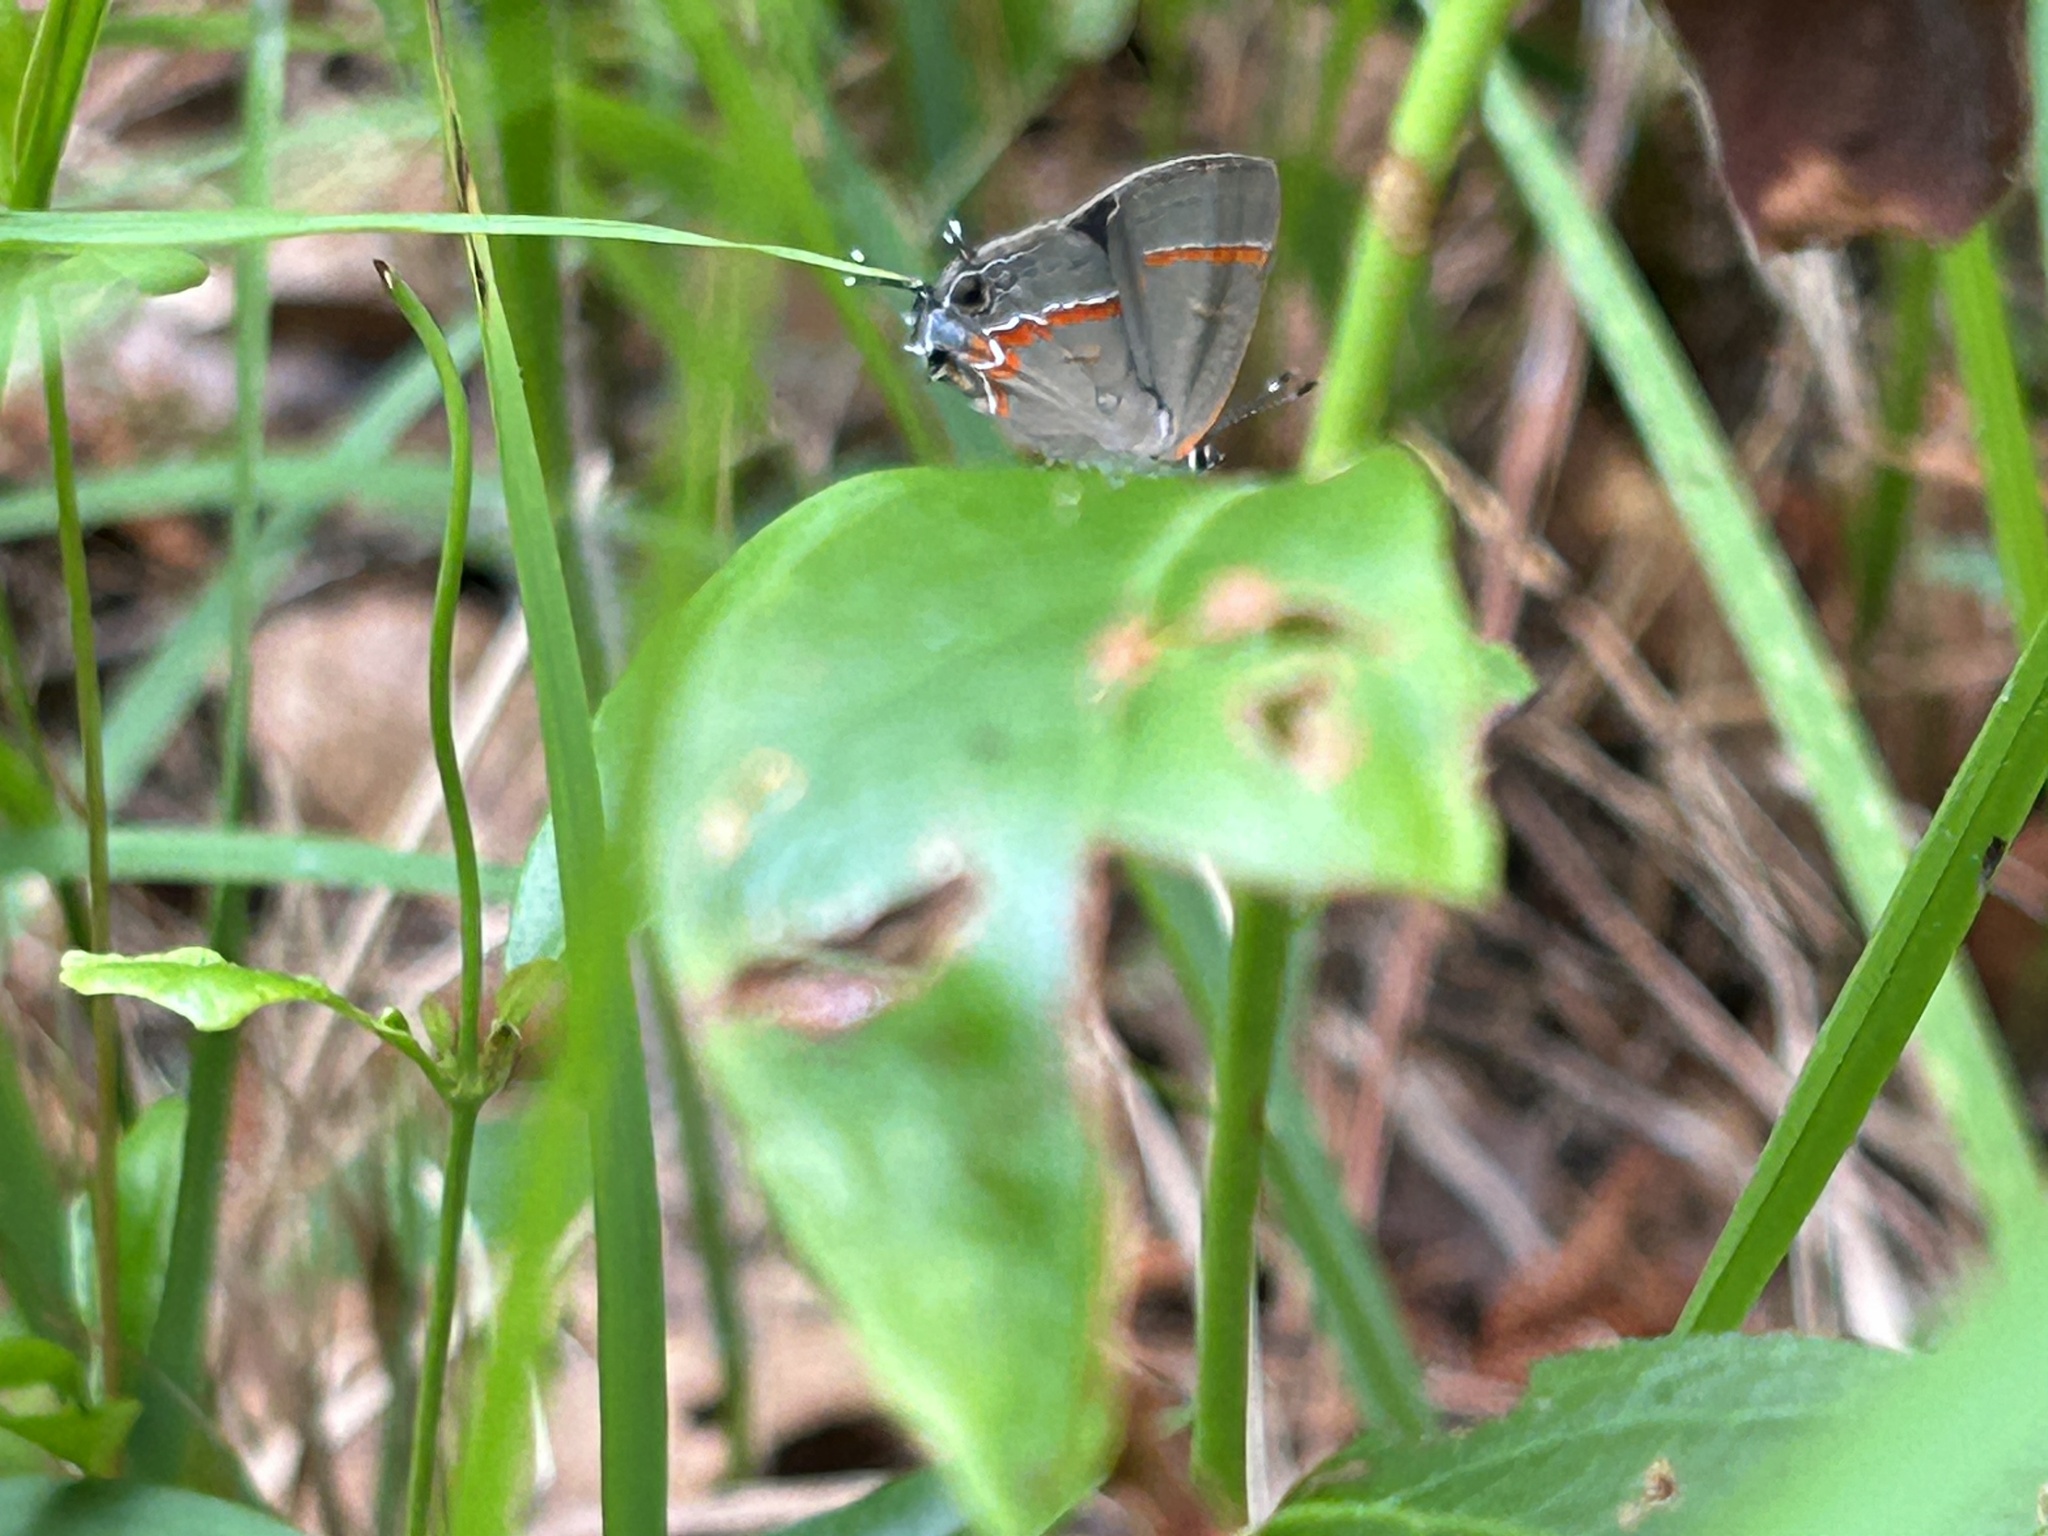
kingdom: Animalia
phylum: Arthropoda
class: Insecta
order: Lepidoptera
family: Lycaenidae
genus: Calycopis
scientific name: Calycopis cecrops
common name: Red-banded hairstreak
